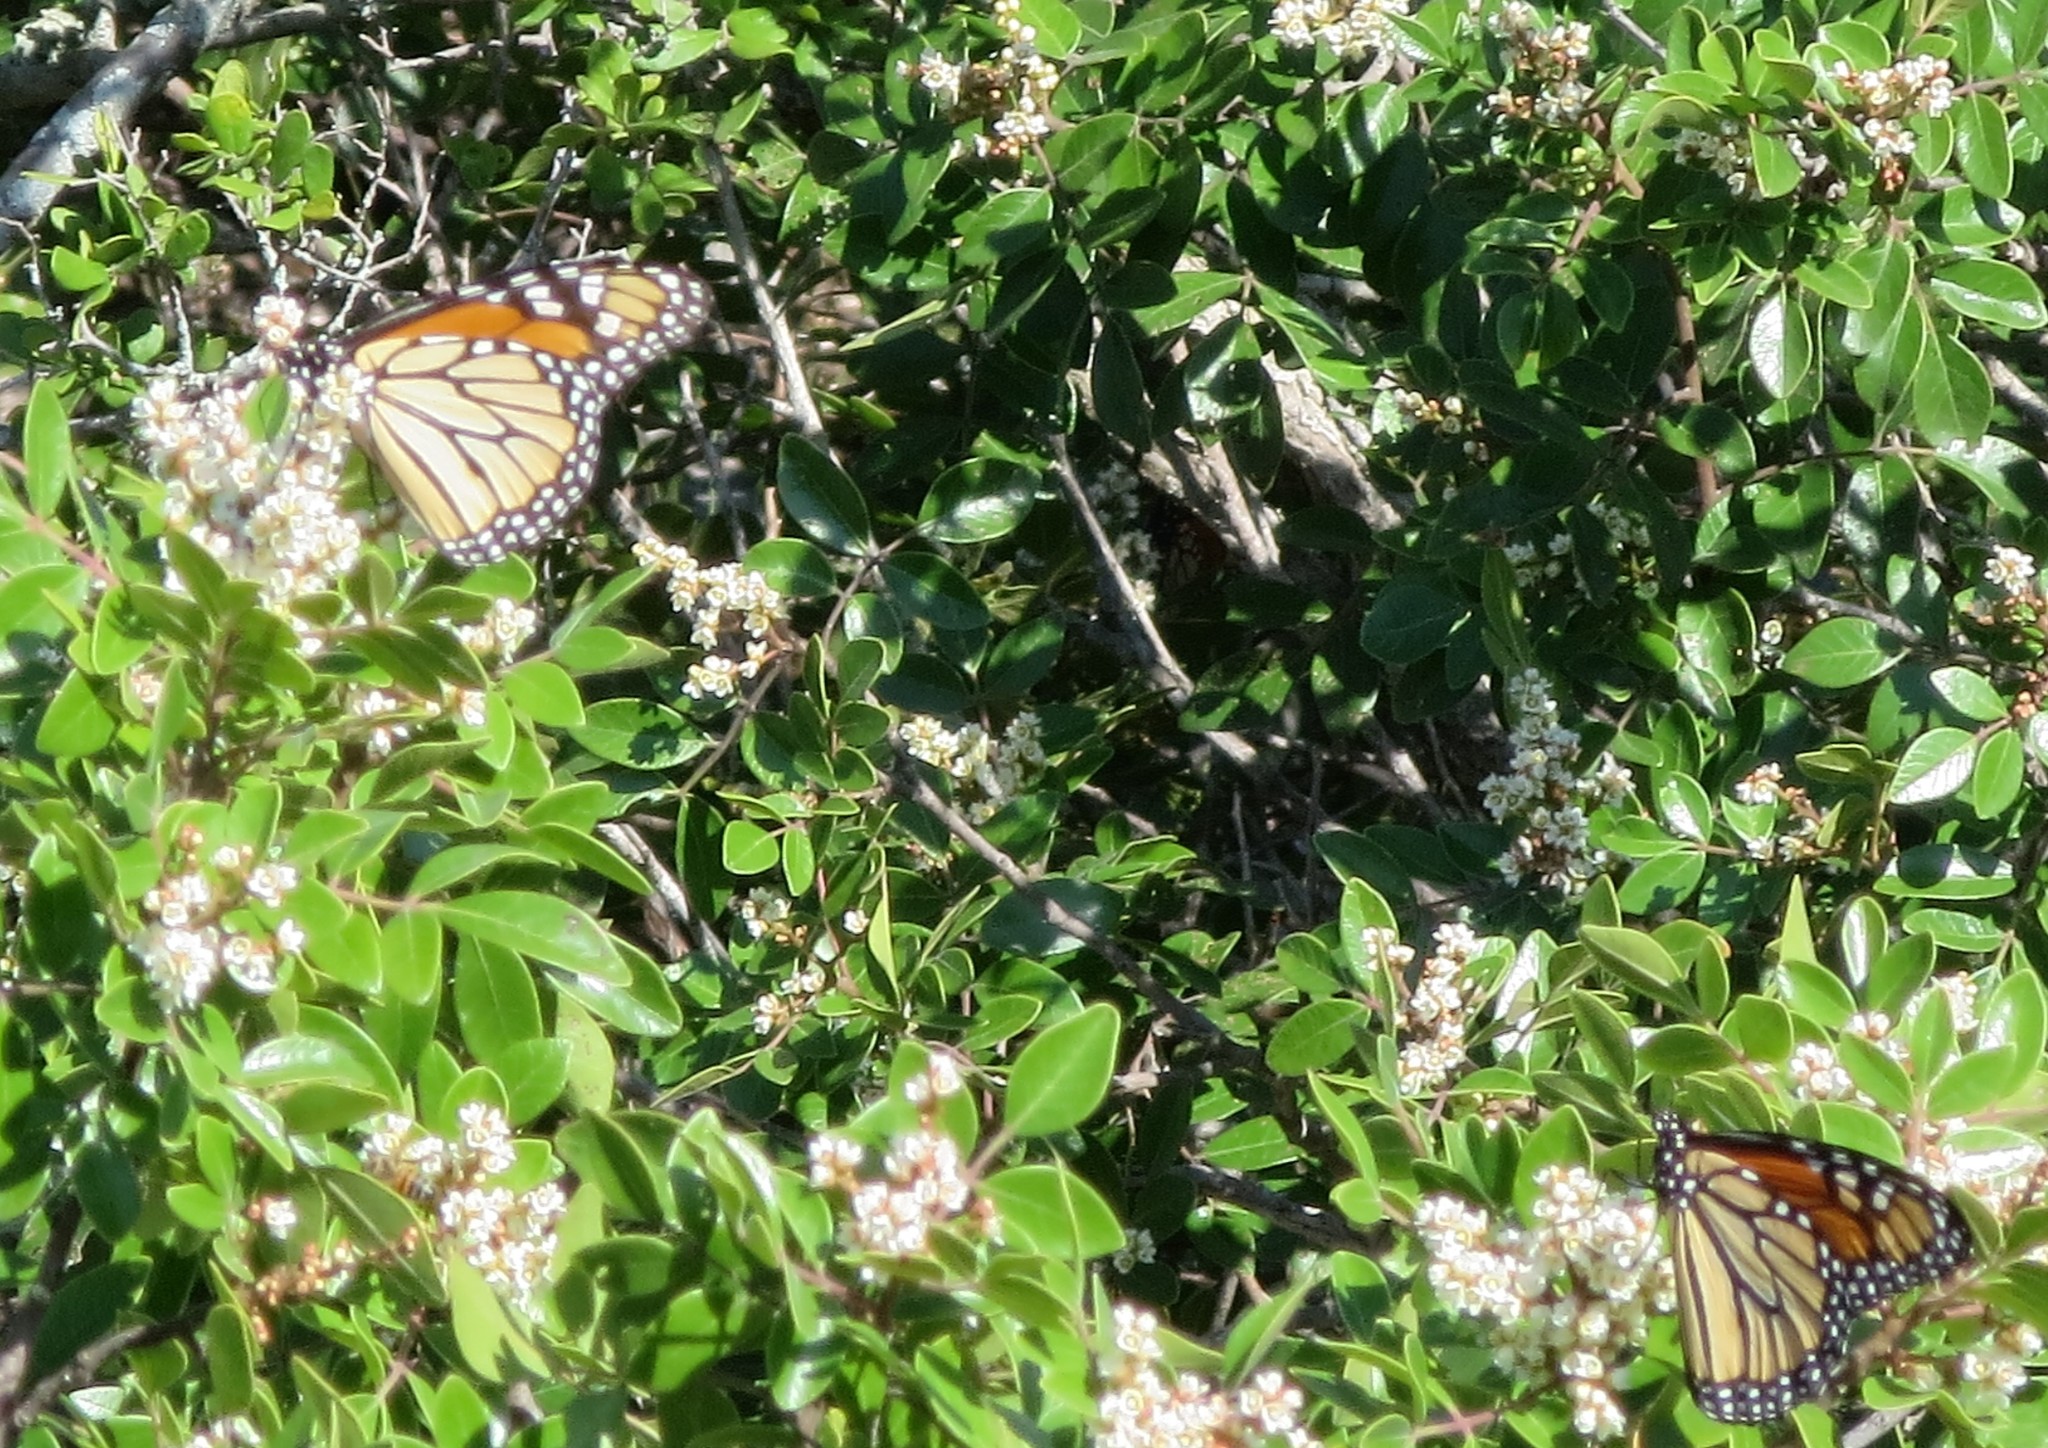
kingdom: Animalia
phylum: Arthropoda
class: Insecta
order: Lepidoptera
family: Nymphalidae
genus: Danaus
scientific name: Danaus plexippus
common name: Monarch
